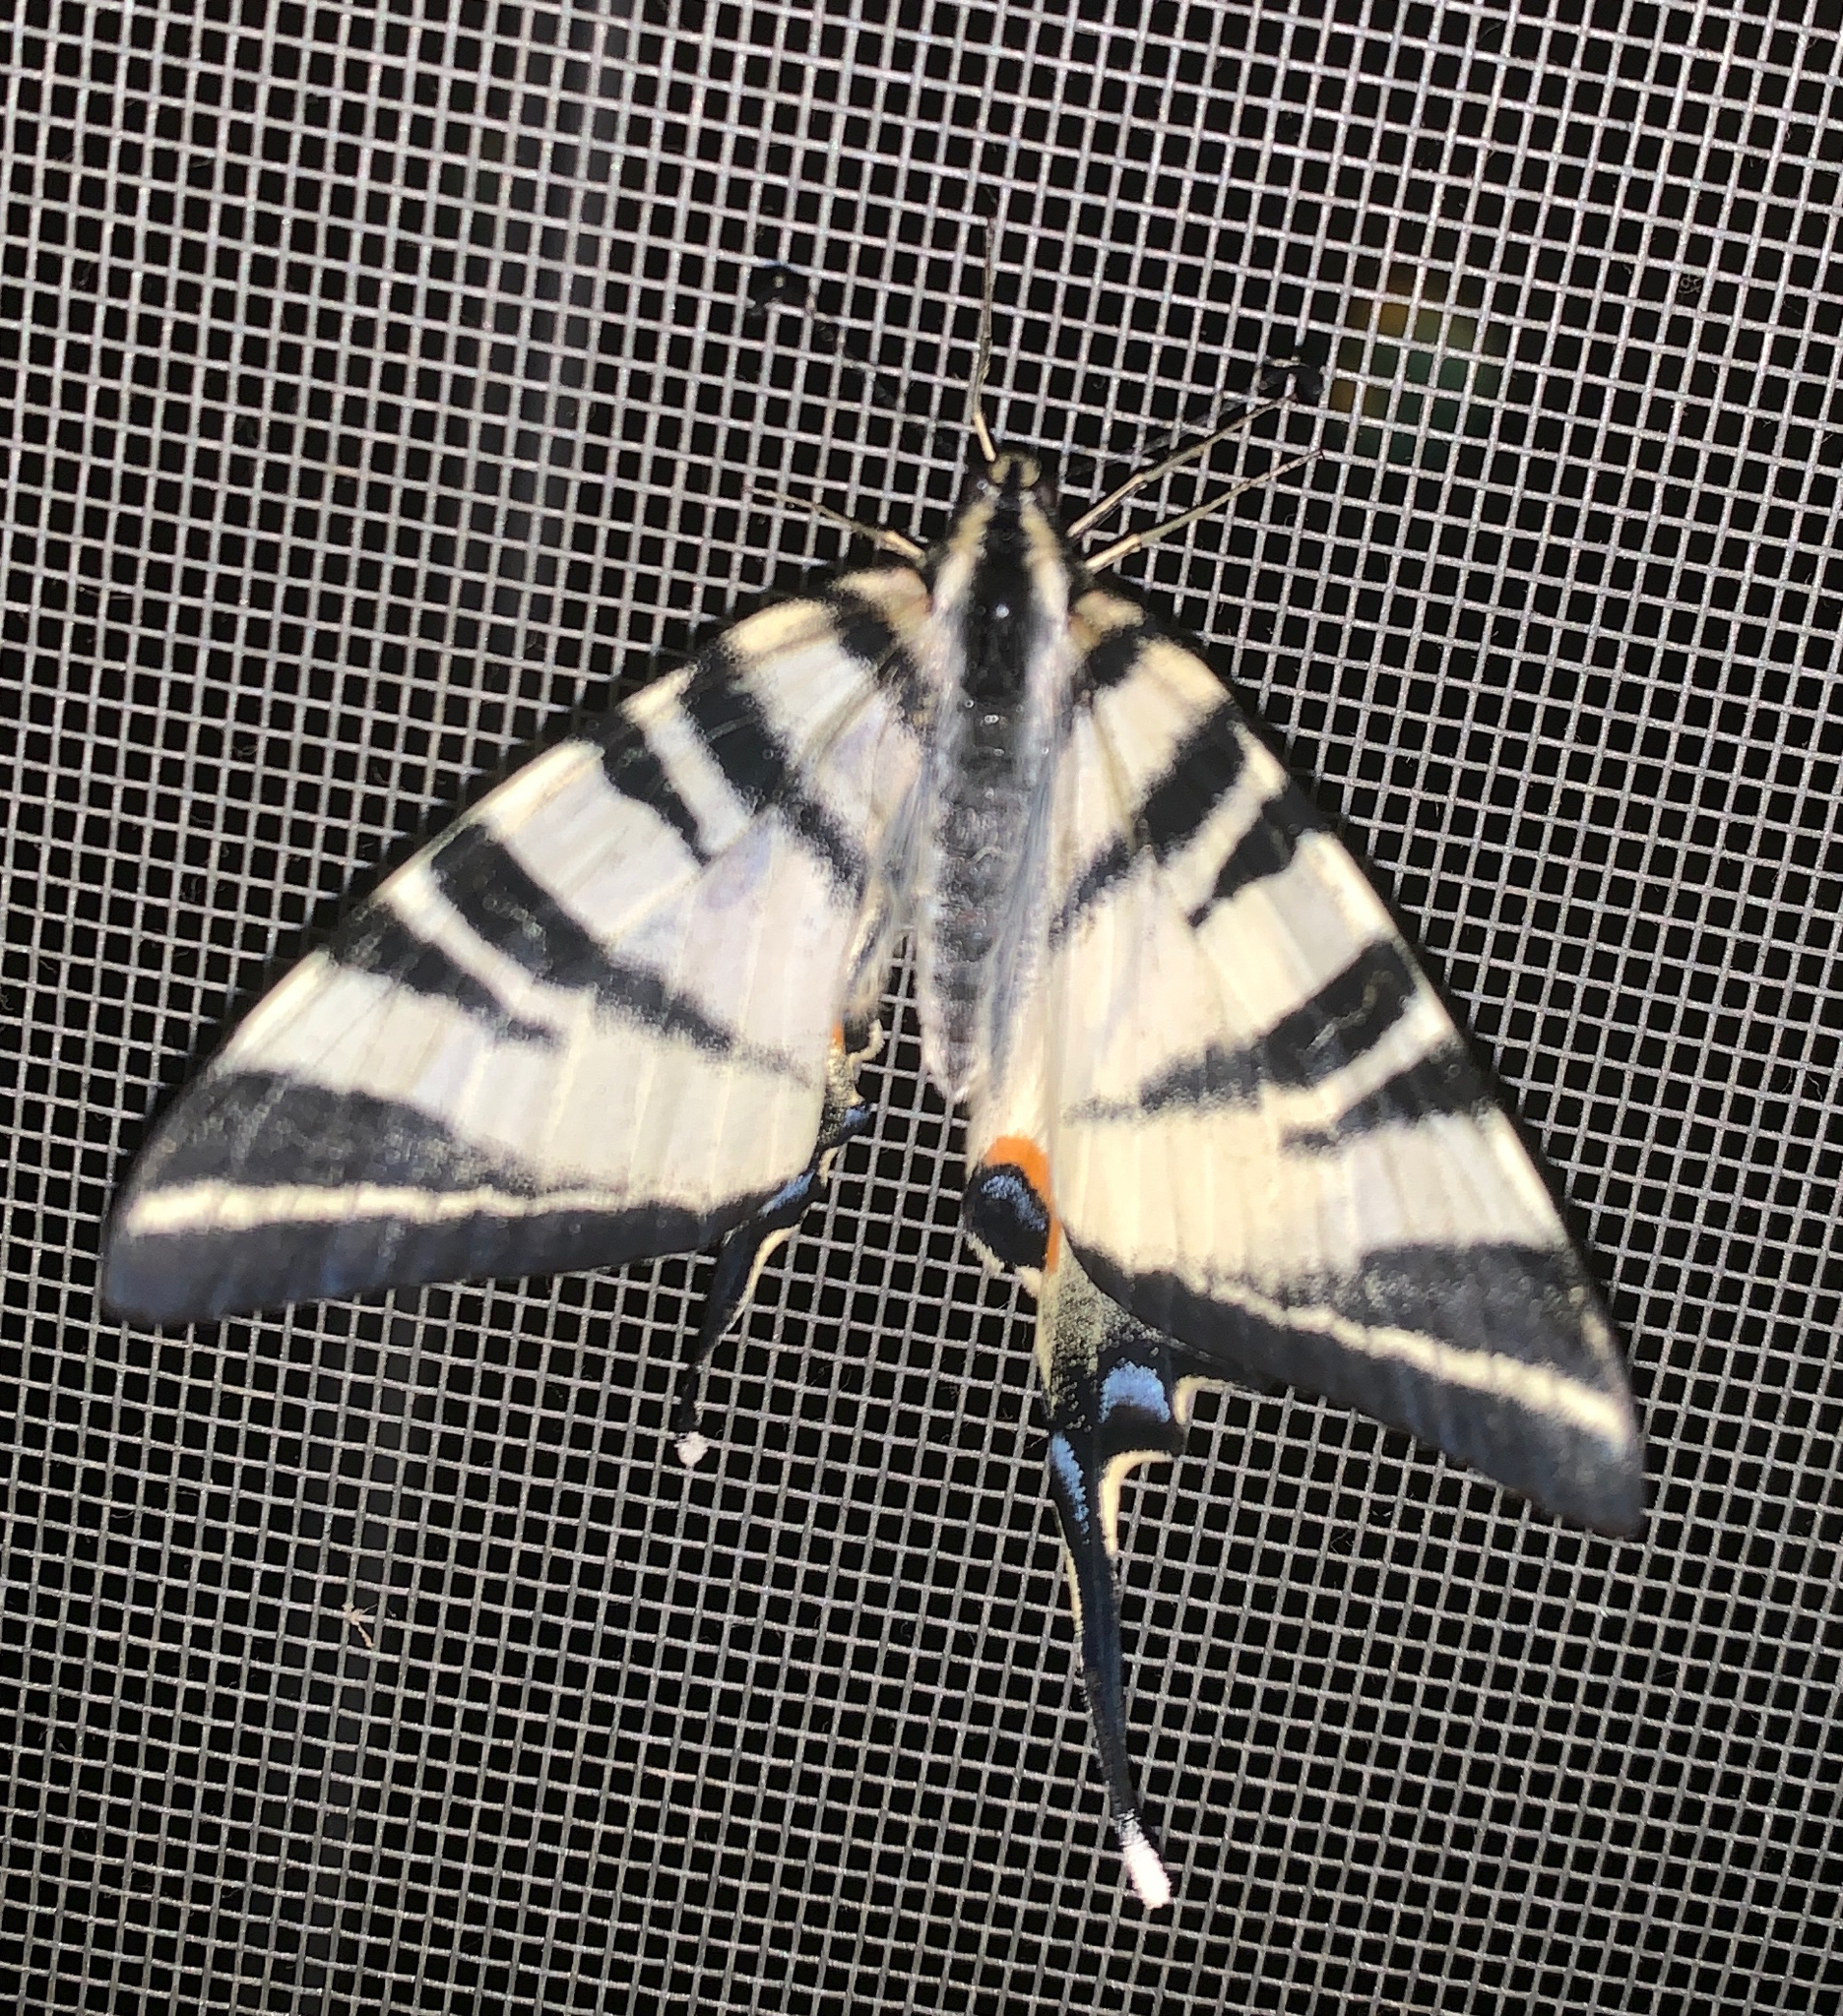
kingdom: Animalia
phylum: Arthropoda
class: Insecta
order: Lepidoptera
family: Papilionidae
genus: Iphiclides
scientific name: Iphiclides podalirius
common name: Scarce swallowtail
